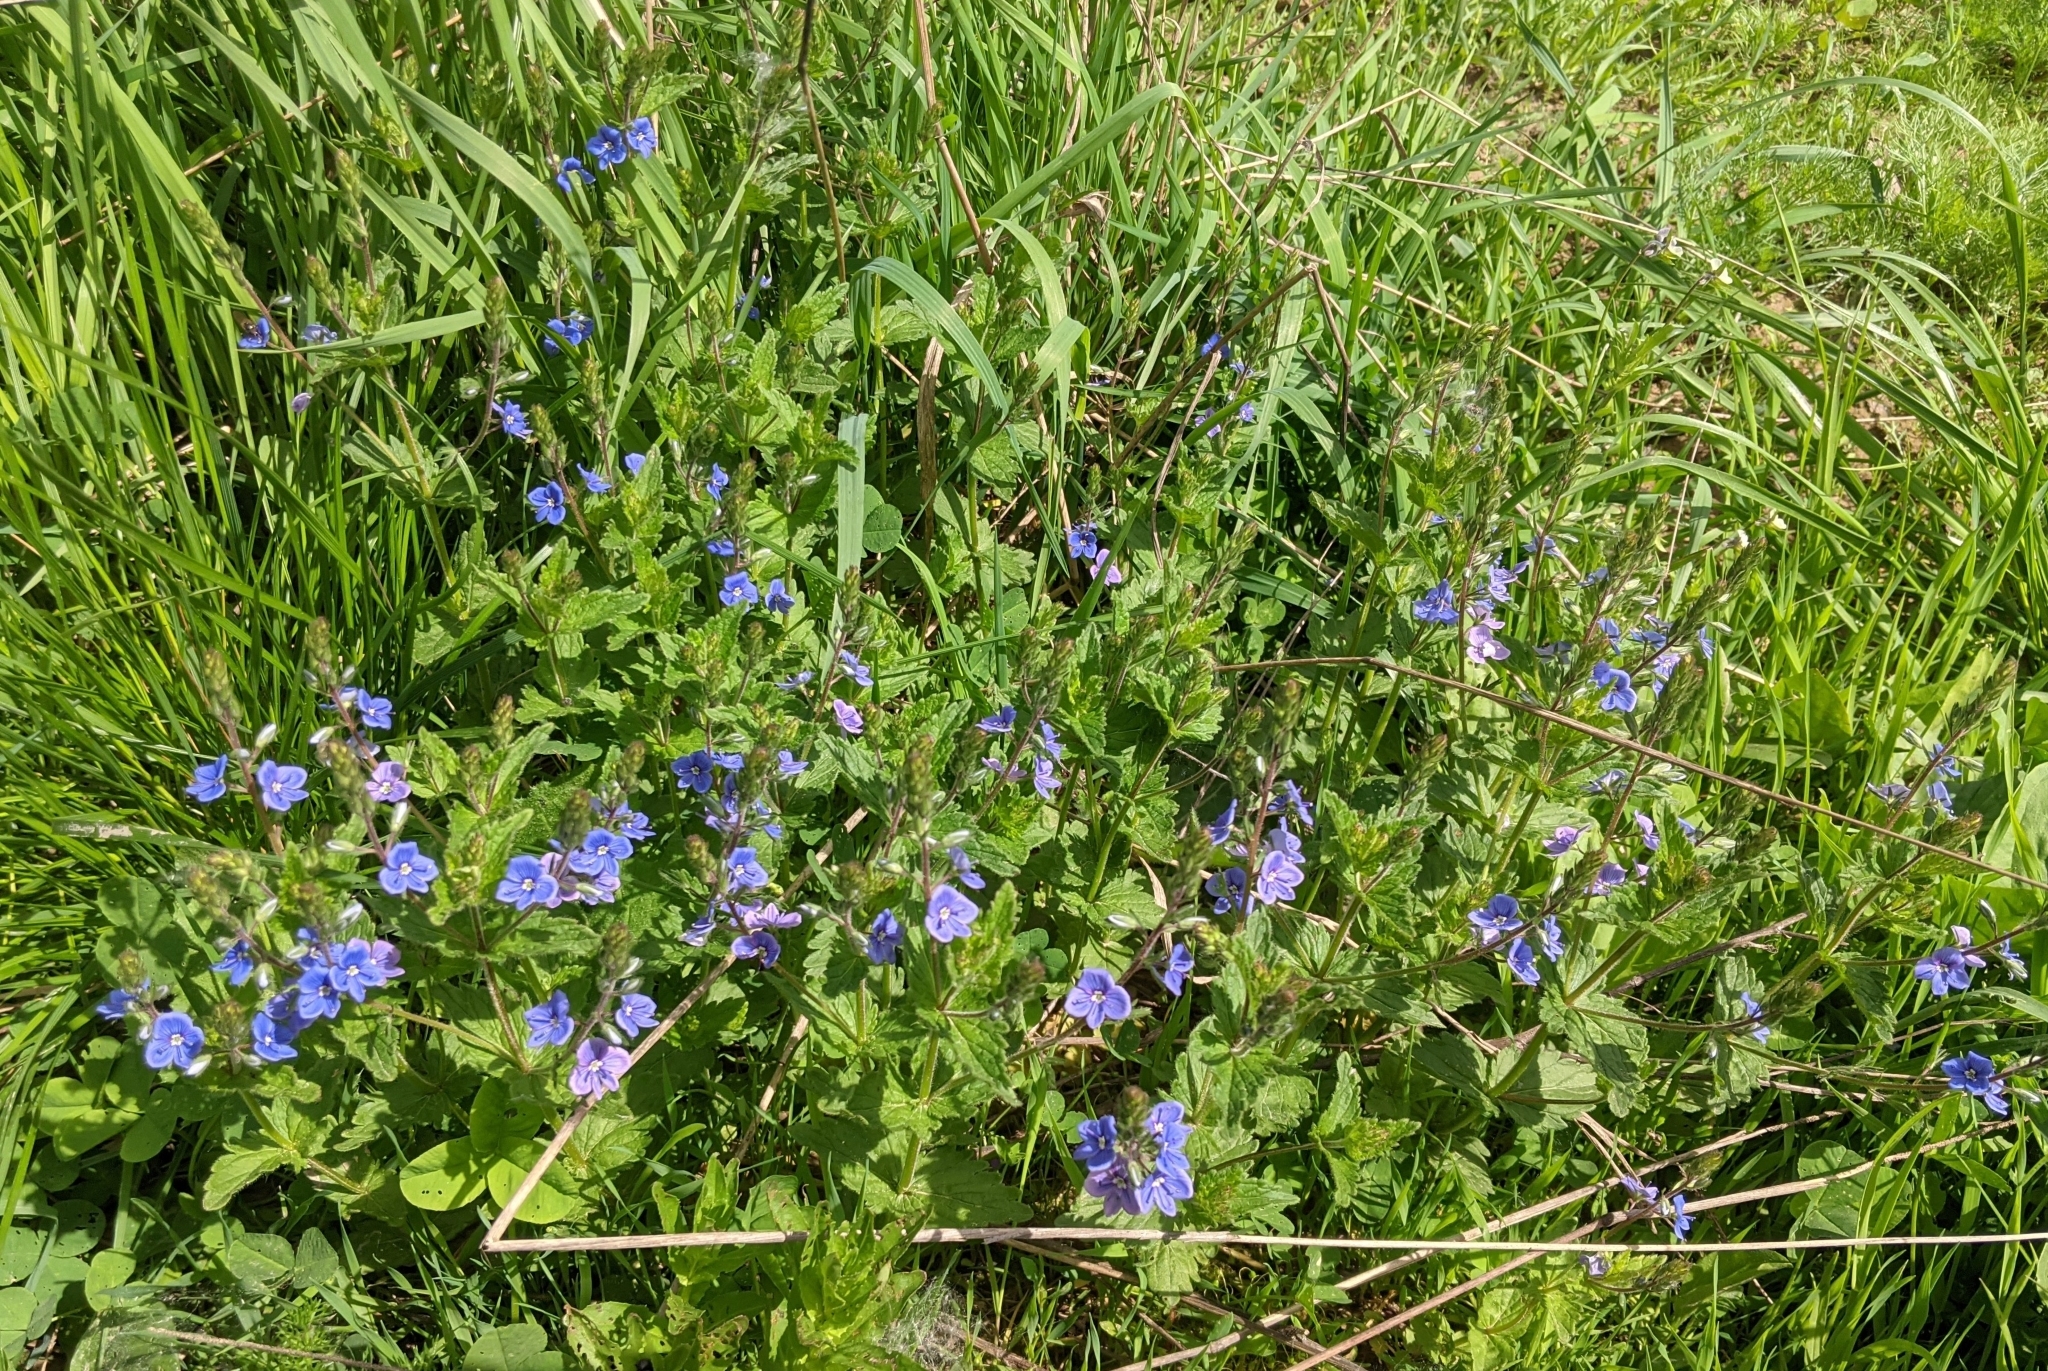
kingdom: Plantae
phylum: Tracheophyta
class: Magnoliopsida
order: Lamiales
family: Plantaginaceae
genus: Veronica
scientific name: Veronica chamaedrys
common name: Germander speedwell
